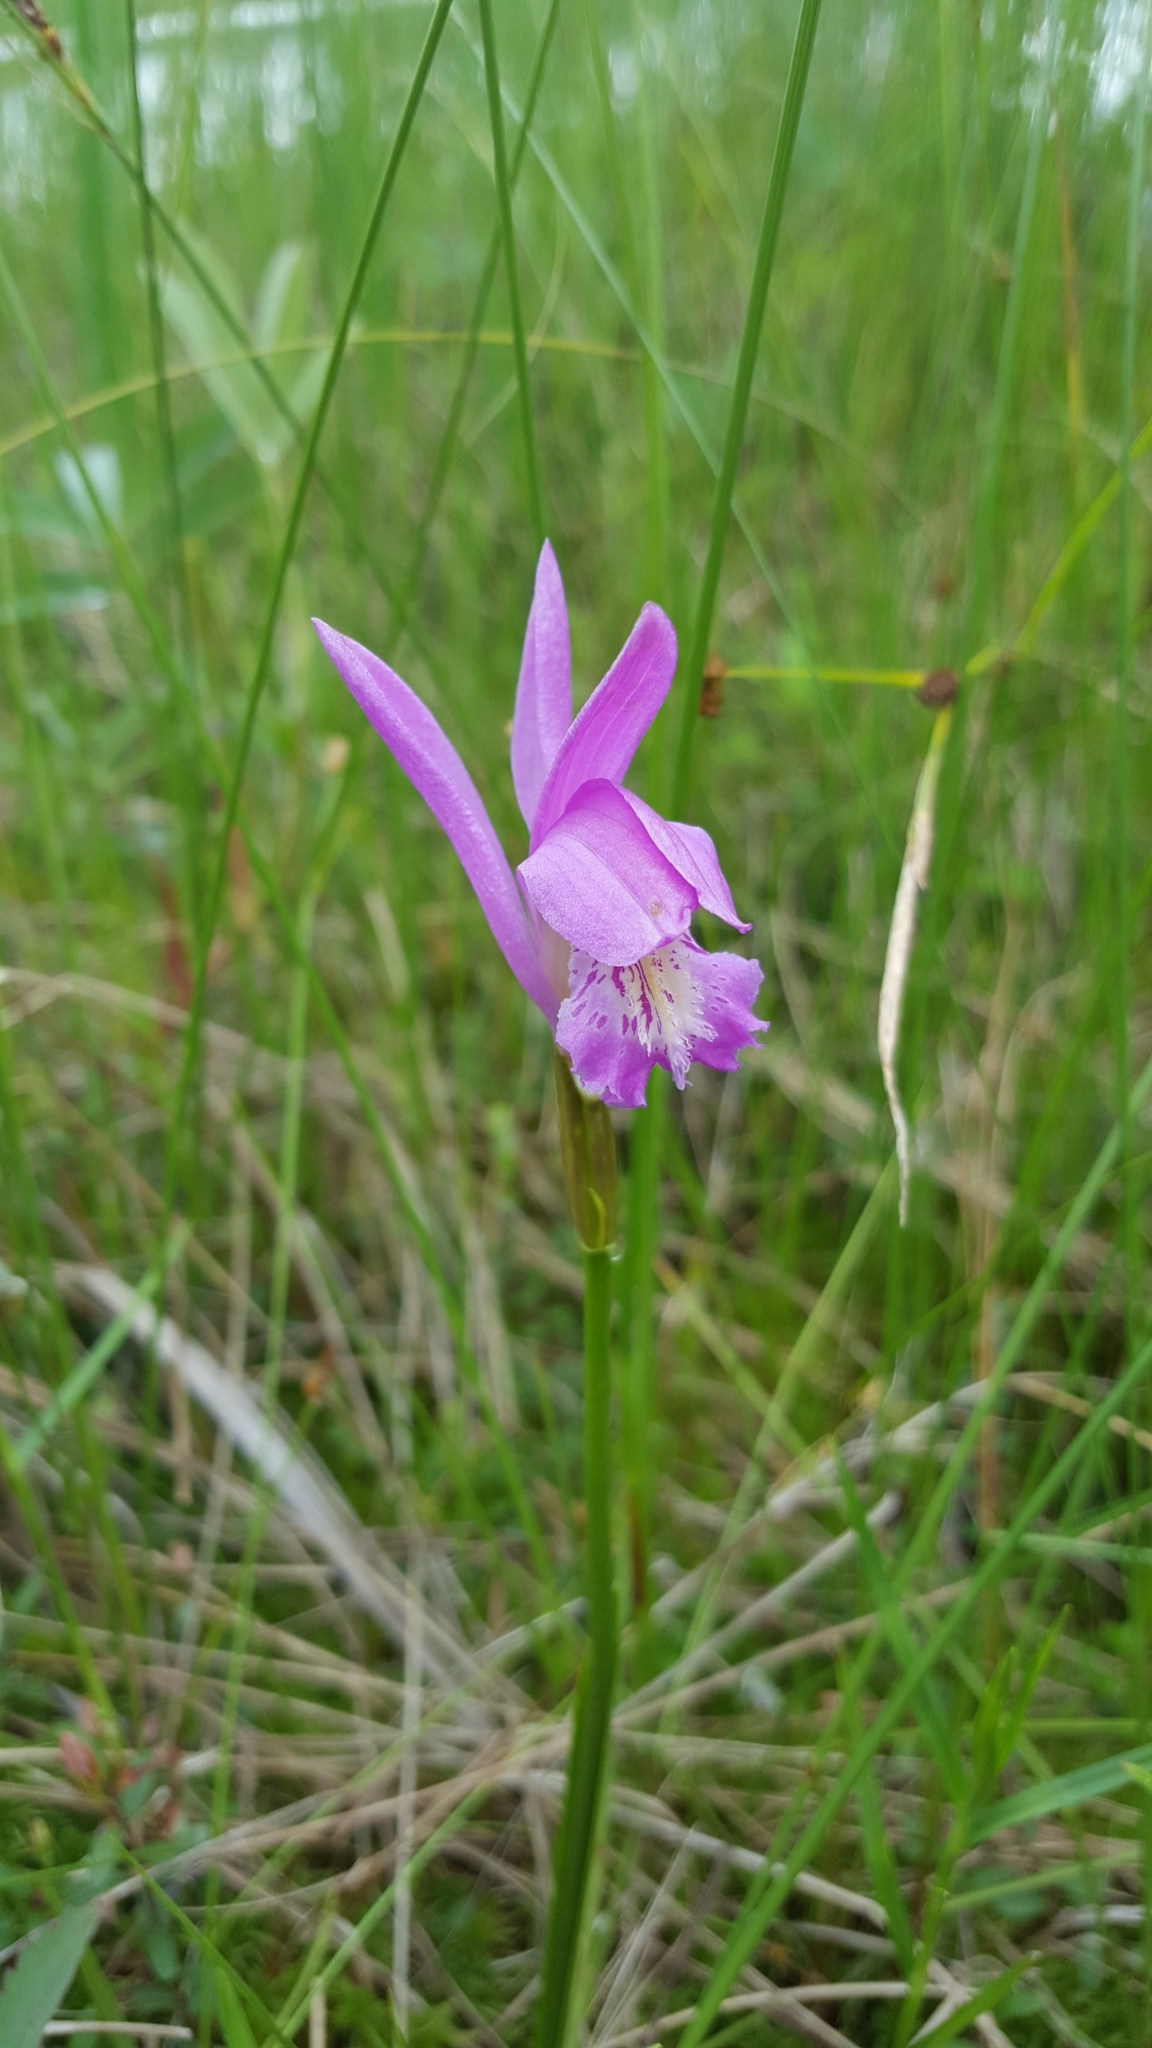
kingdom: Plantae
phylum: Tracheophyta
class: Liliopsida
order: Asparagales
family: Orchidaceae
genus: Arethusa
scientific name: Arethusa bulbosa
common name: Arethusa
